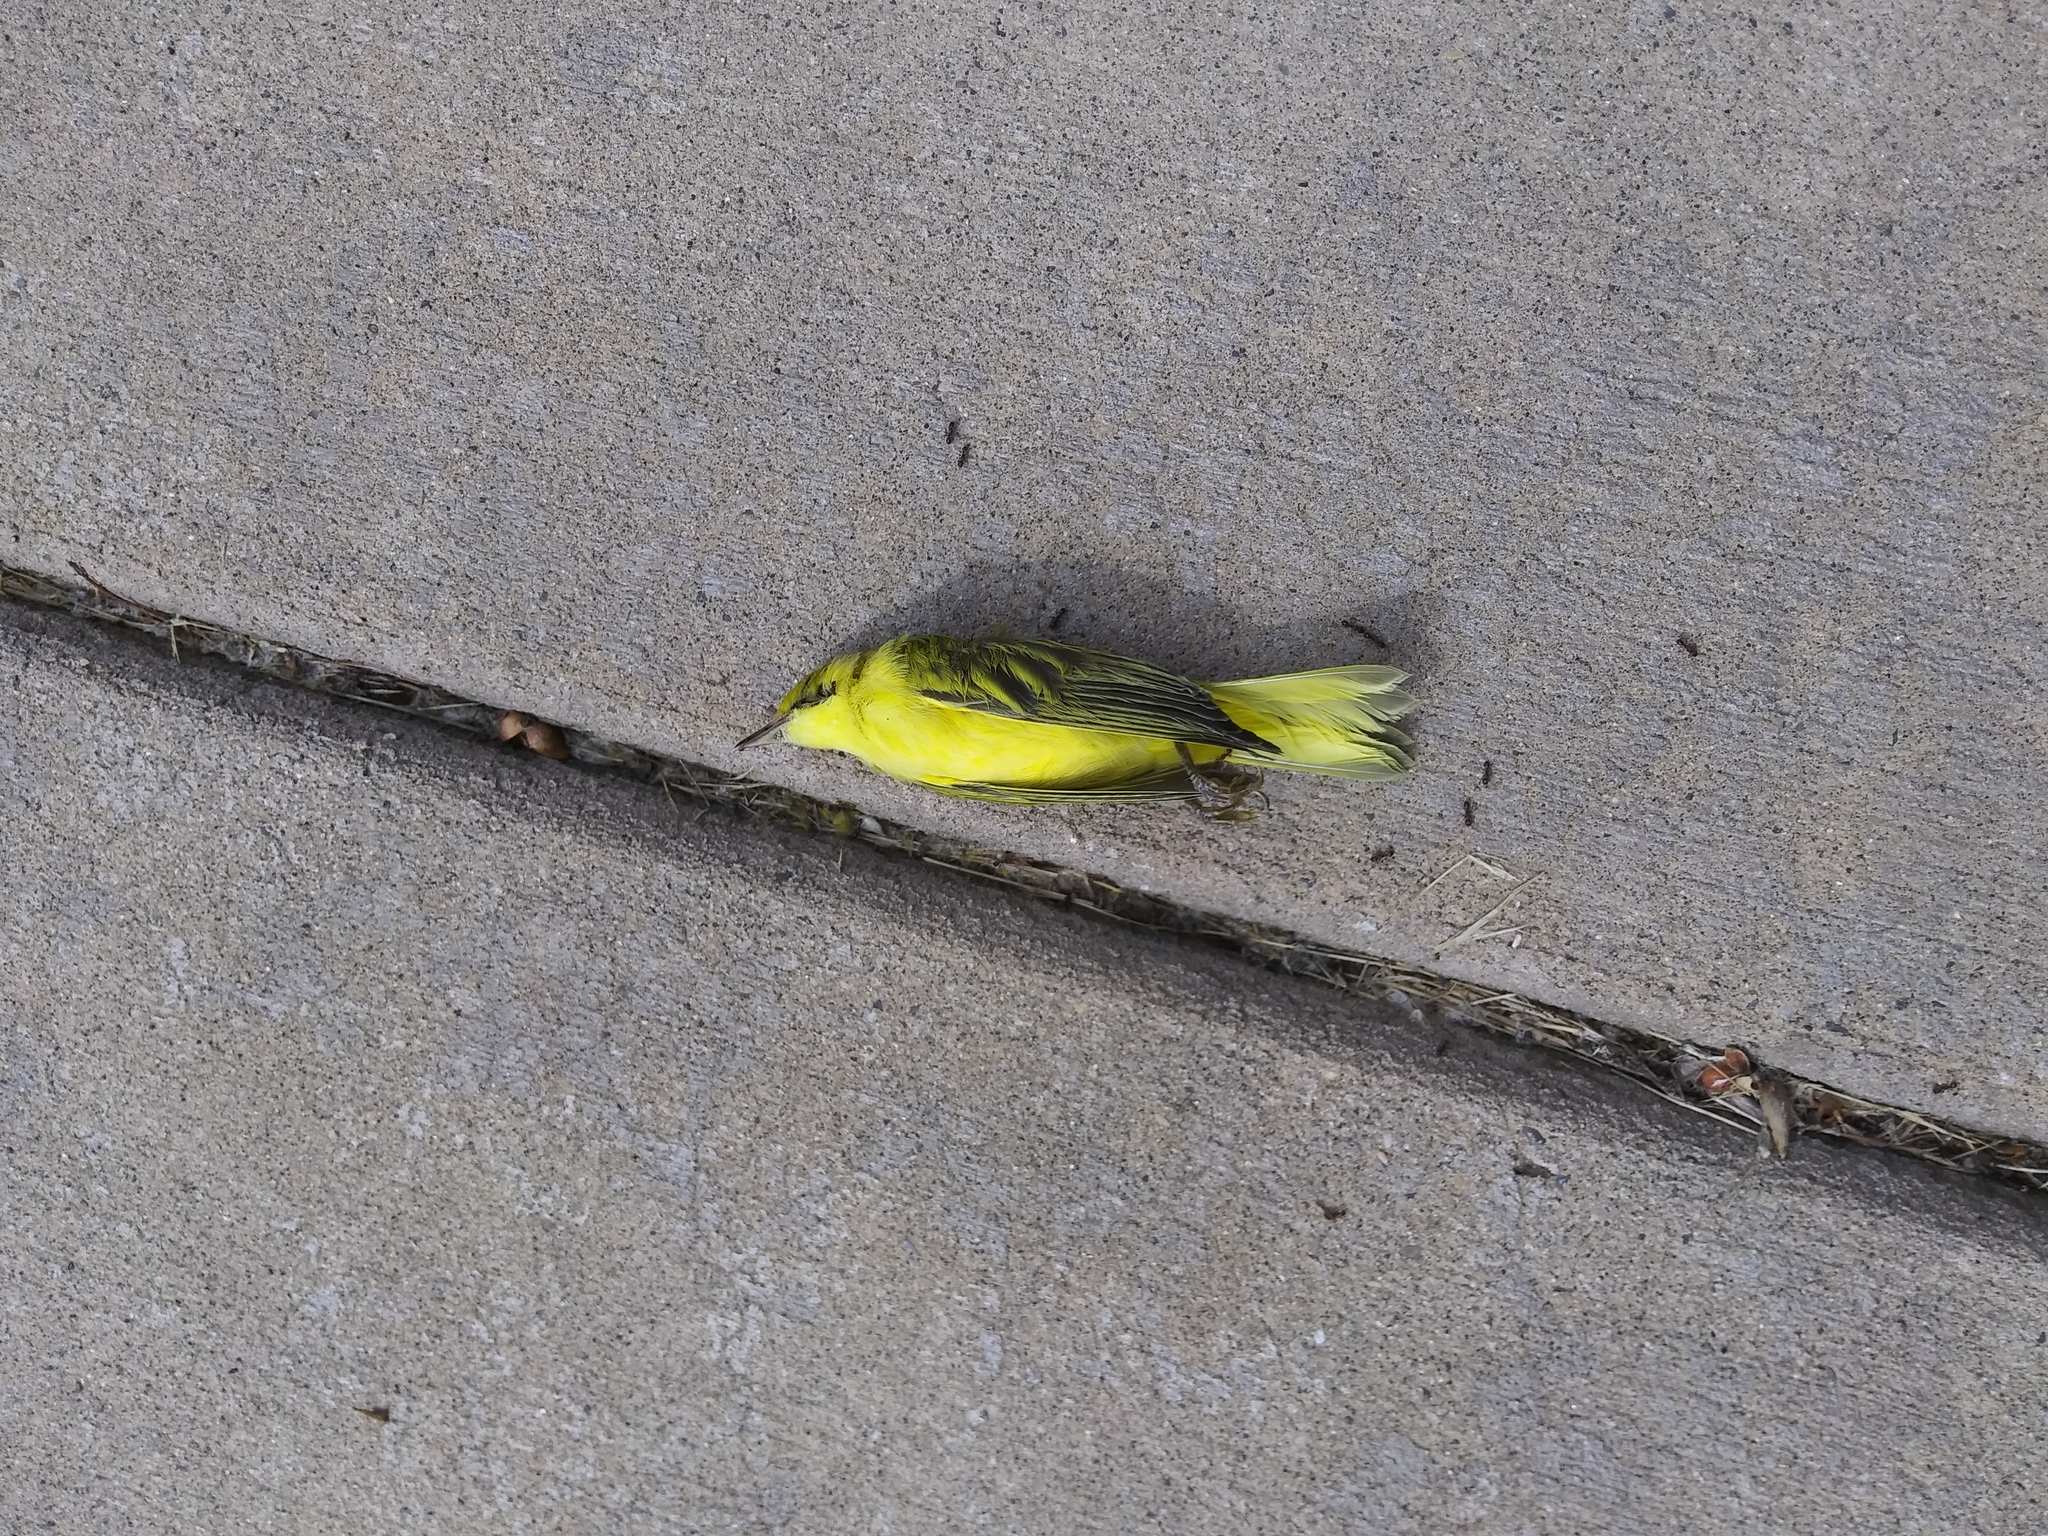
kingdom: Animalia
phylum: Chordata
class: Aves
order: Passeriformes
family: Parulidae
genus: Setophaga
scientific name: Setophaga petechia
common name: Yellow warbler
